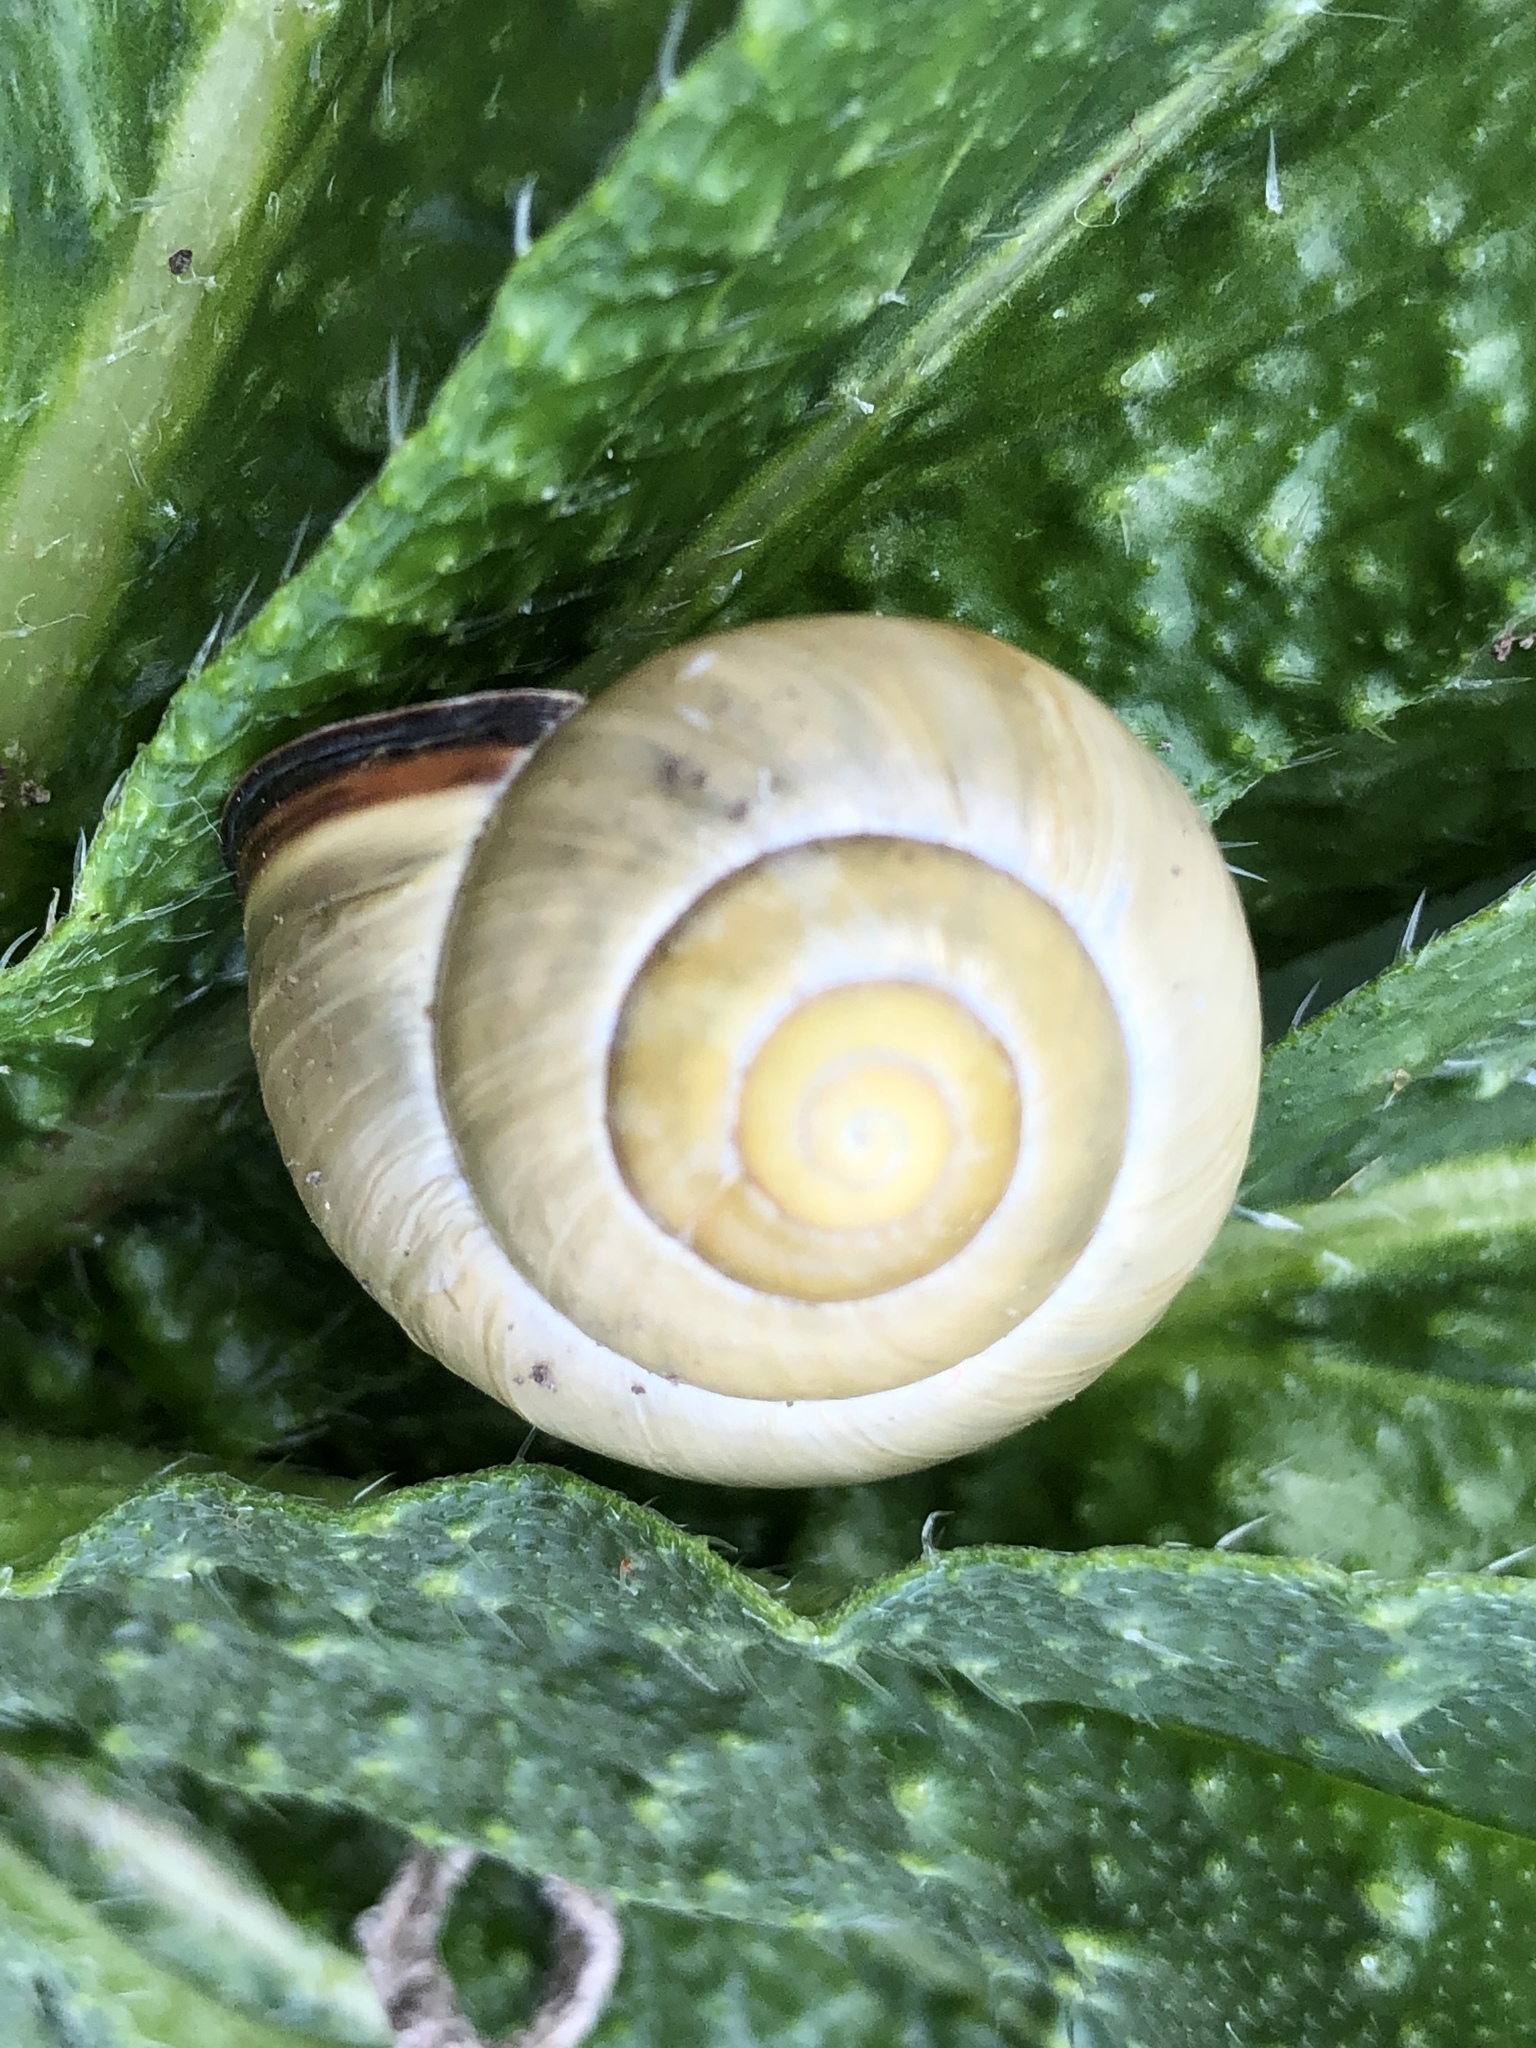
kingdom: Animalia
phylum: Mollusca
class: Gastropoda
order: Stylommatophora
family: Helicidae
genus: Cepaea
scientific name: Cepaea nemoralis
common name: Grovesnail
